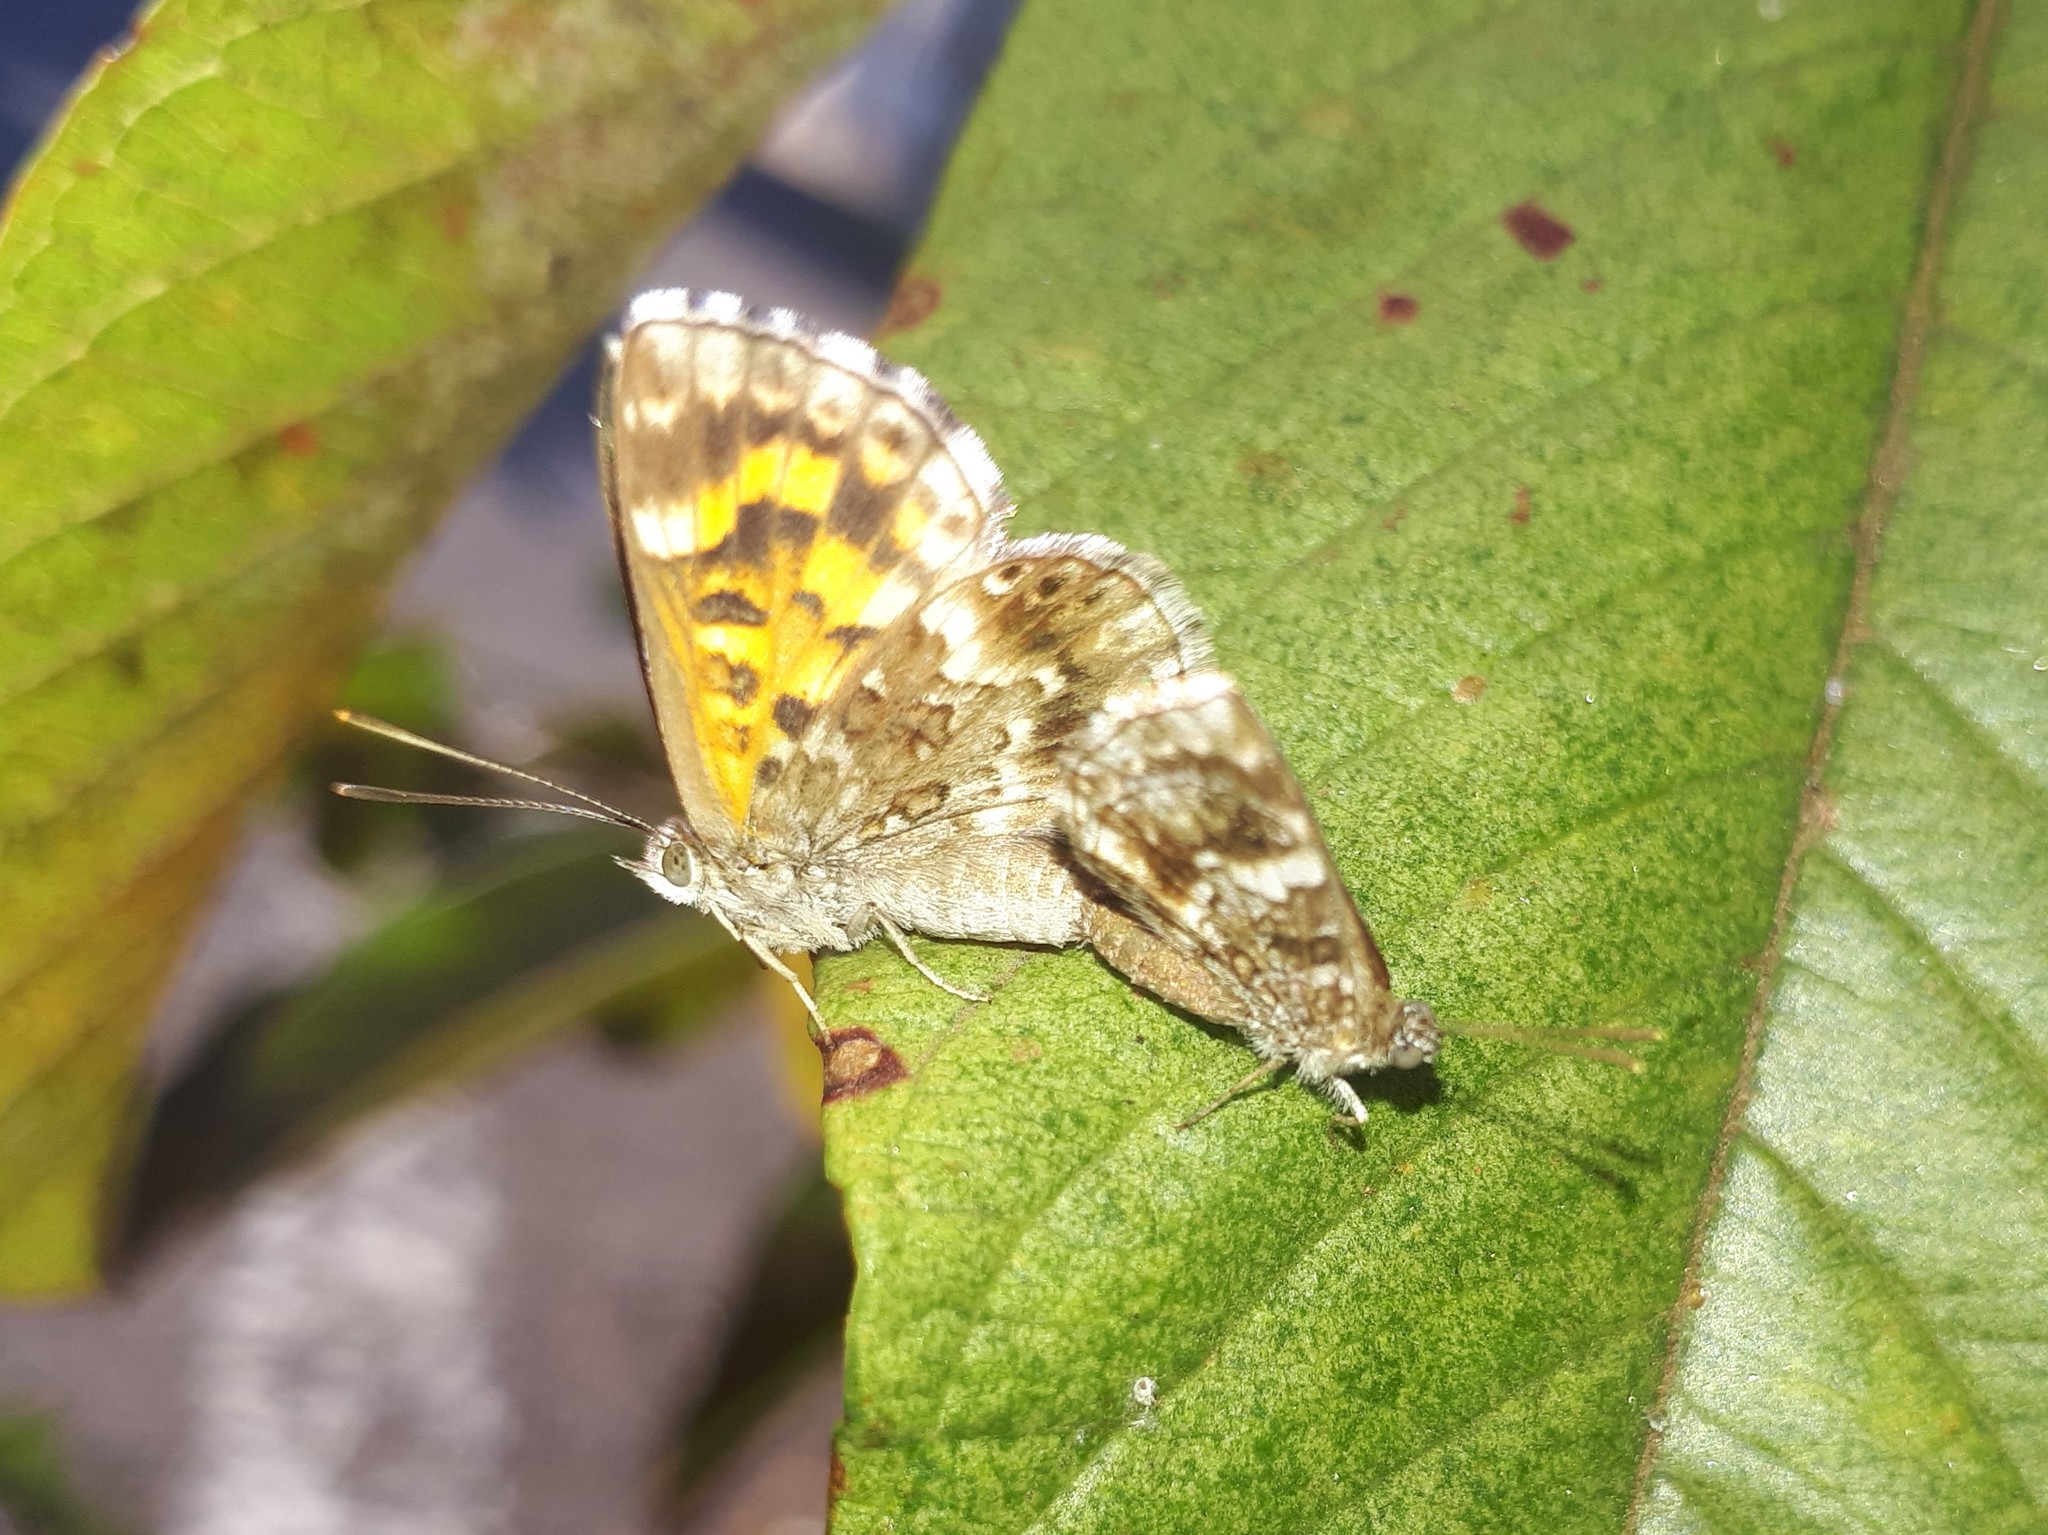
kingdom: Animalia
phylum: Arthropoda
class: Insecta
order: Lepidoptera
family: Lycaenidae
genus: Aricoris
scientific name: Aricoris signata
